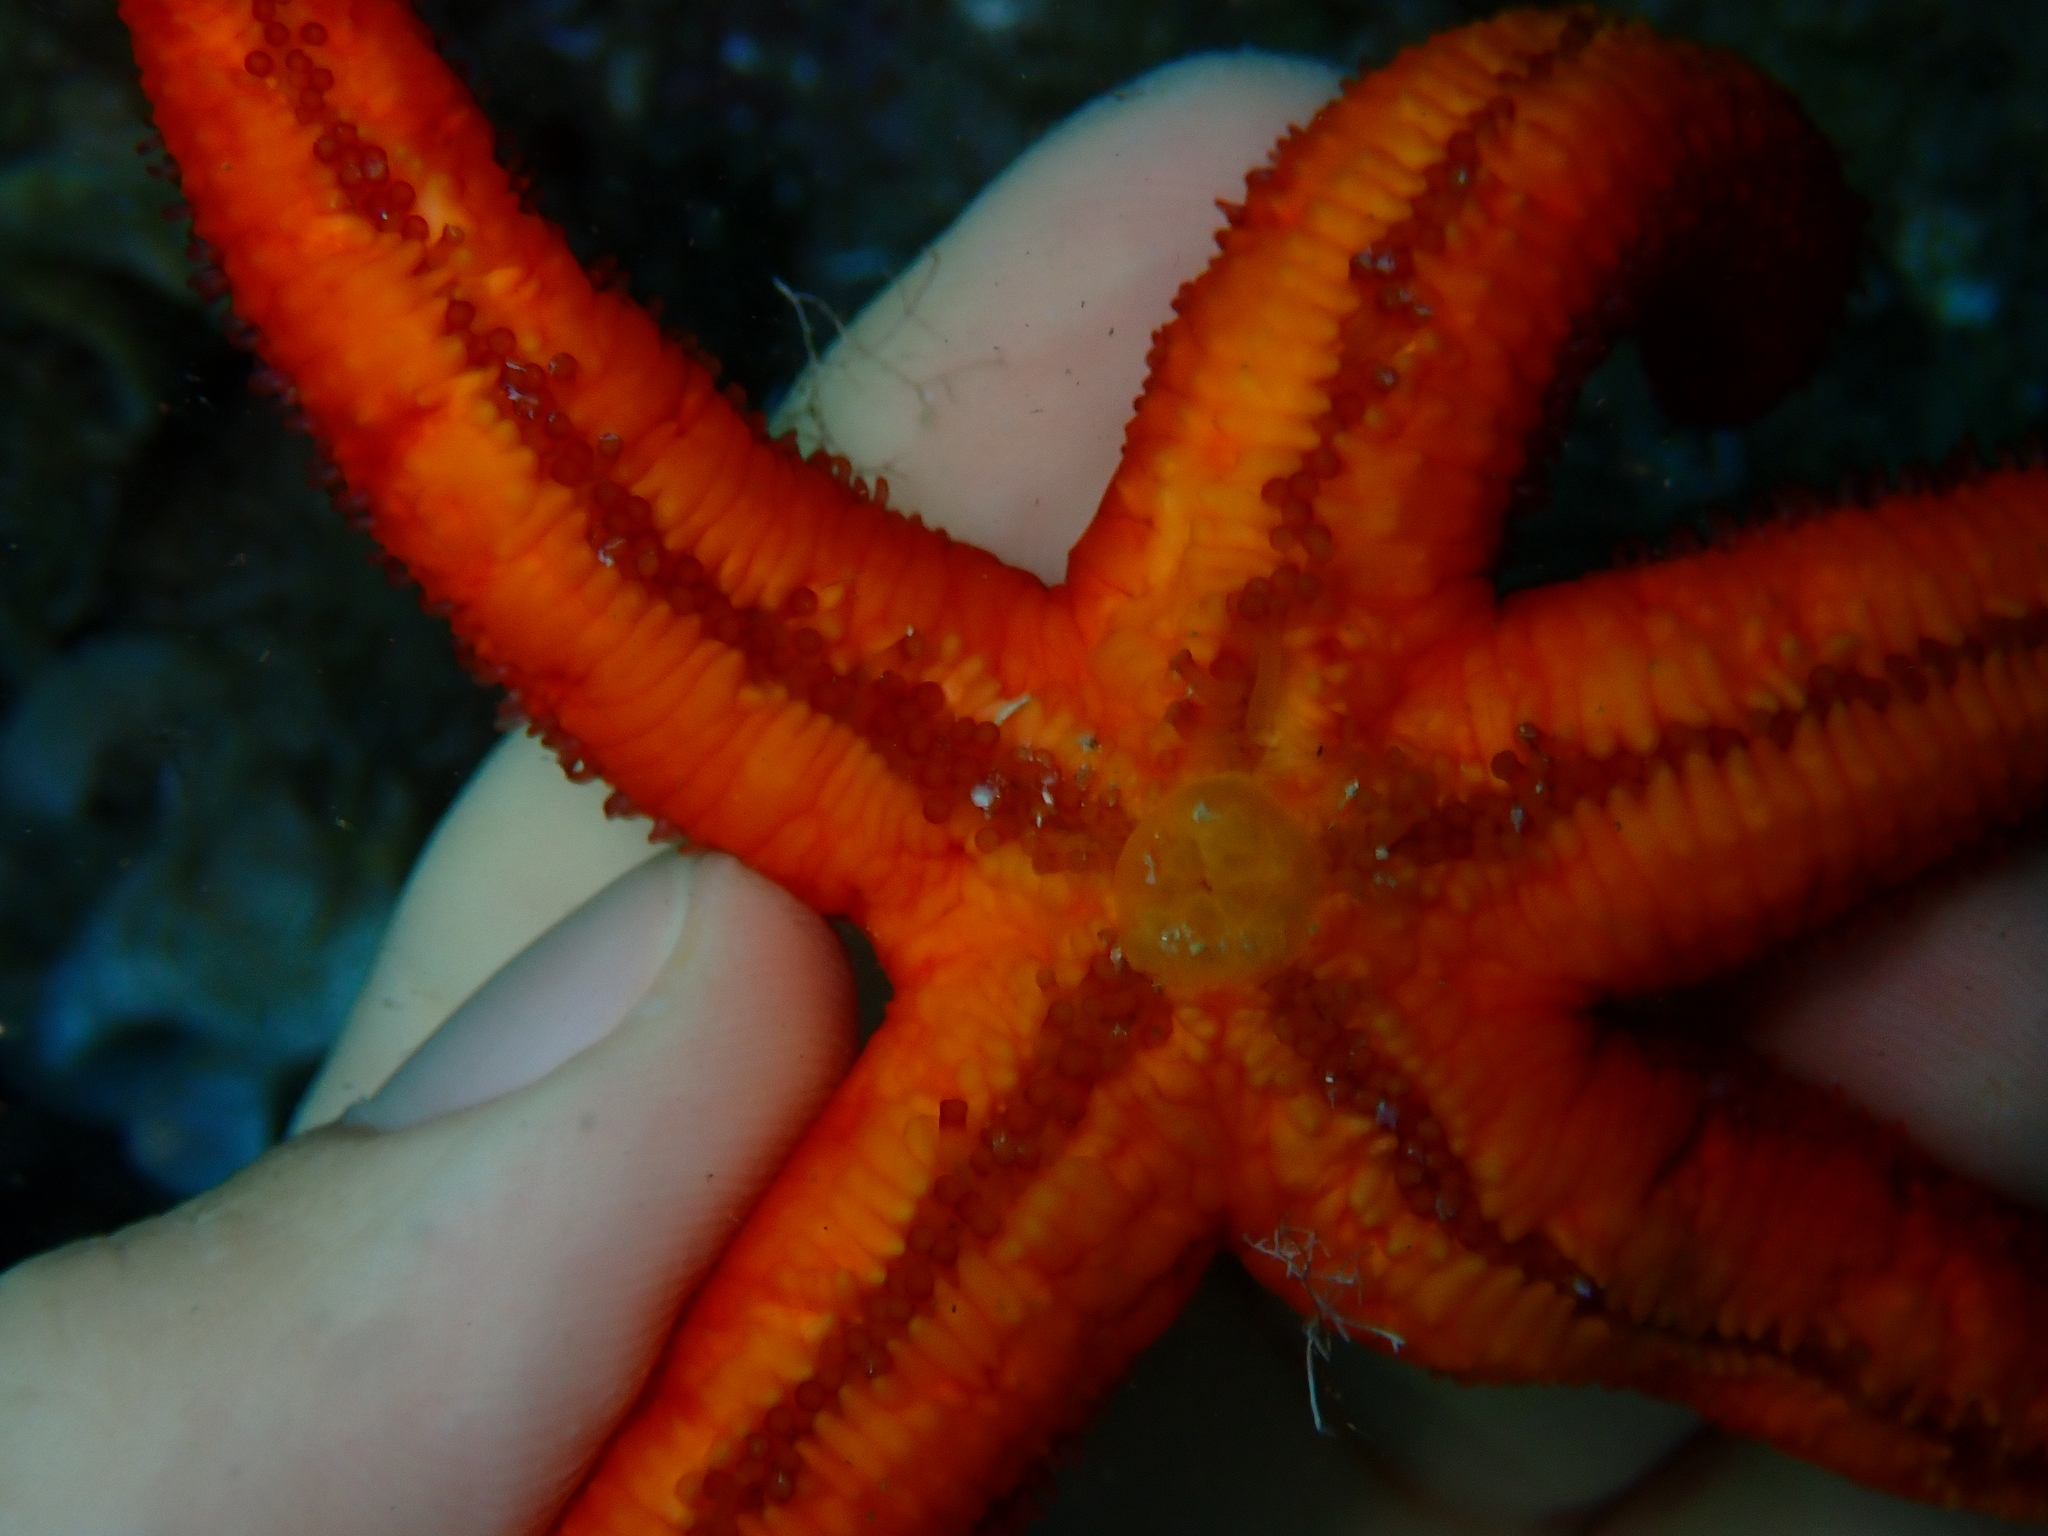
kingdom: Animalia
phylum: Echinodermata
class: Asteroidea
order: Spinulosida
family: Echinasteridae
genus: Echinaster
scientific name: Echinaster sepositus
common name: Red starfish
